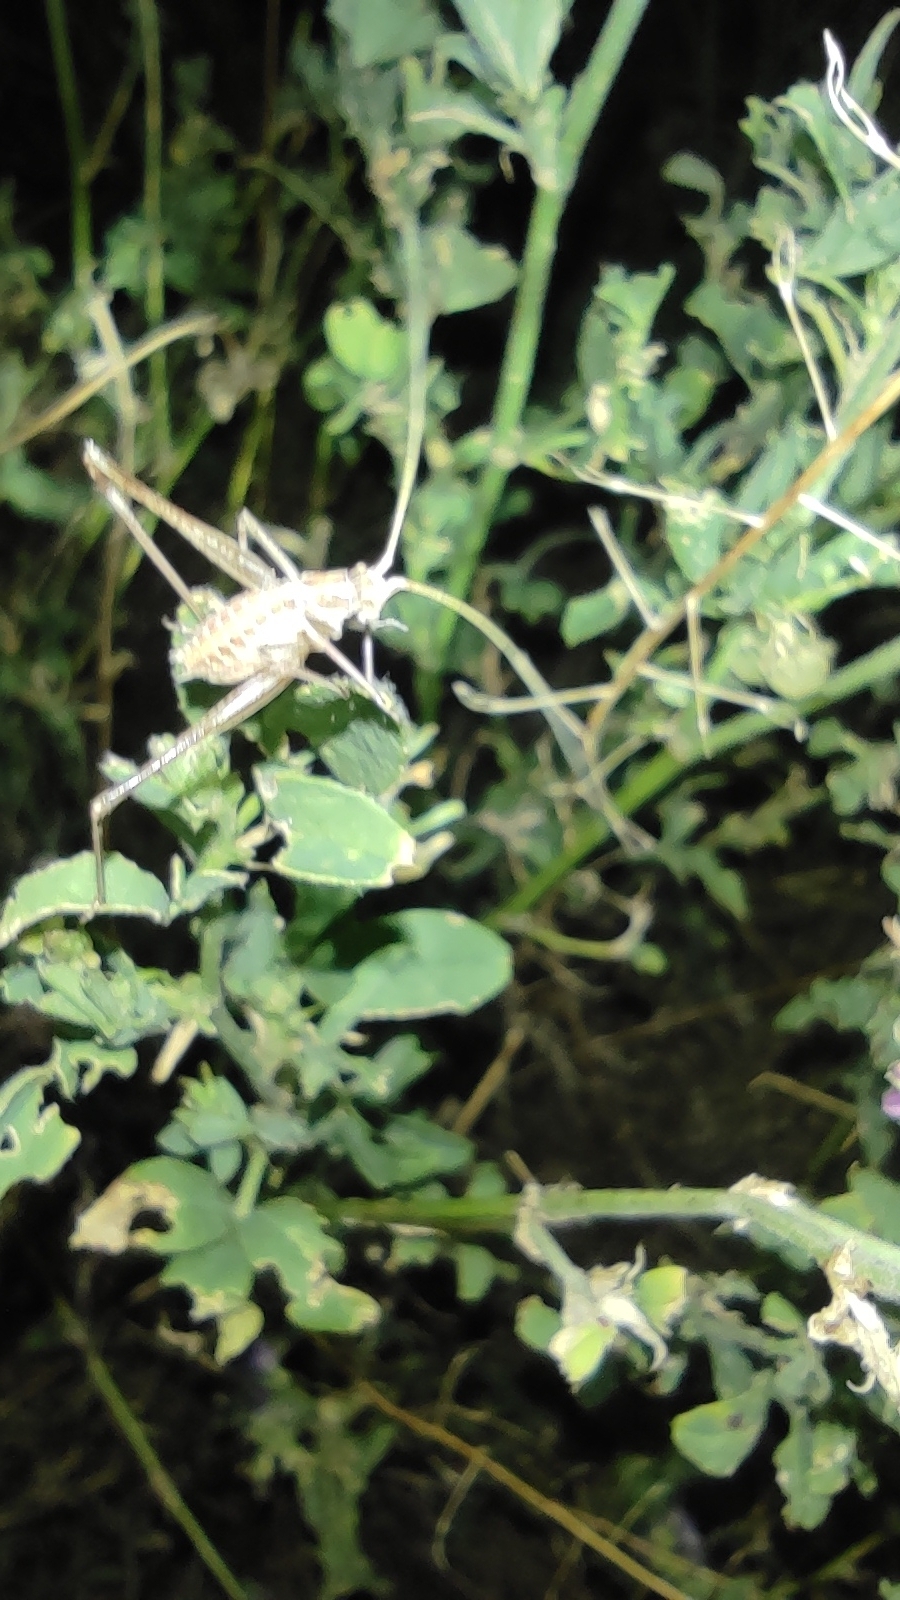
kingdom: Animalia
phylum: Arthropoda
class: Insecta
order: Orthoptera
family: Tettigoniidae
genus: Tylopsis
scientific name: Tylopsis lilifolia
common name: Lily bush-cricket
